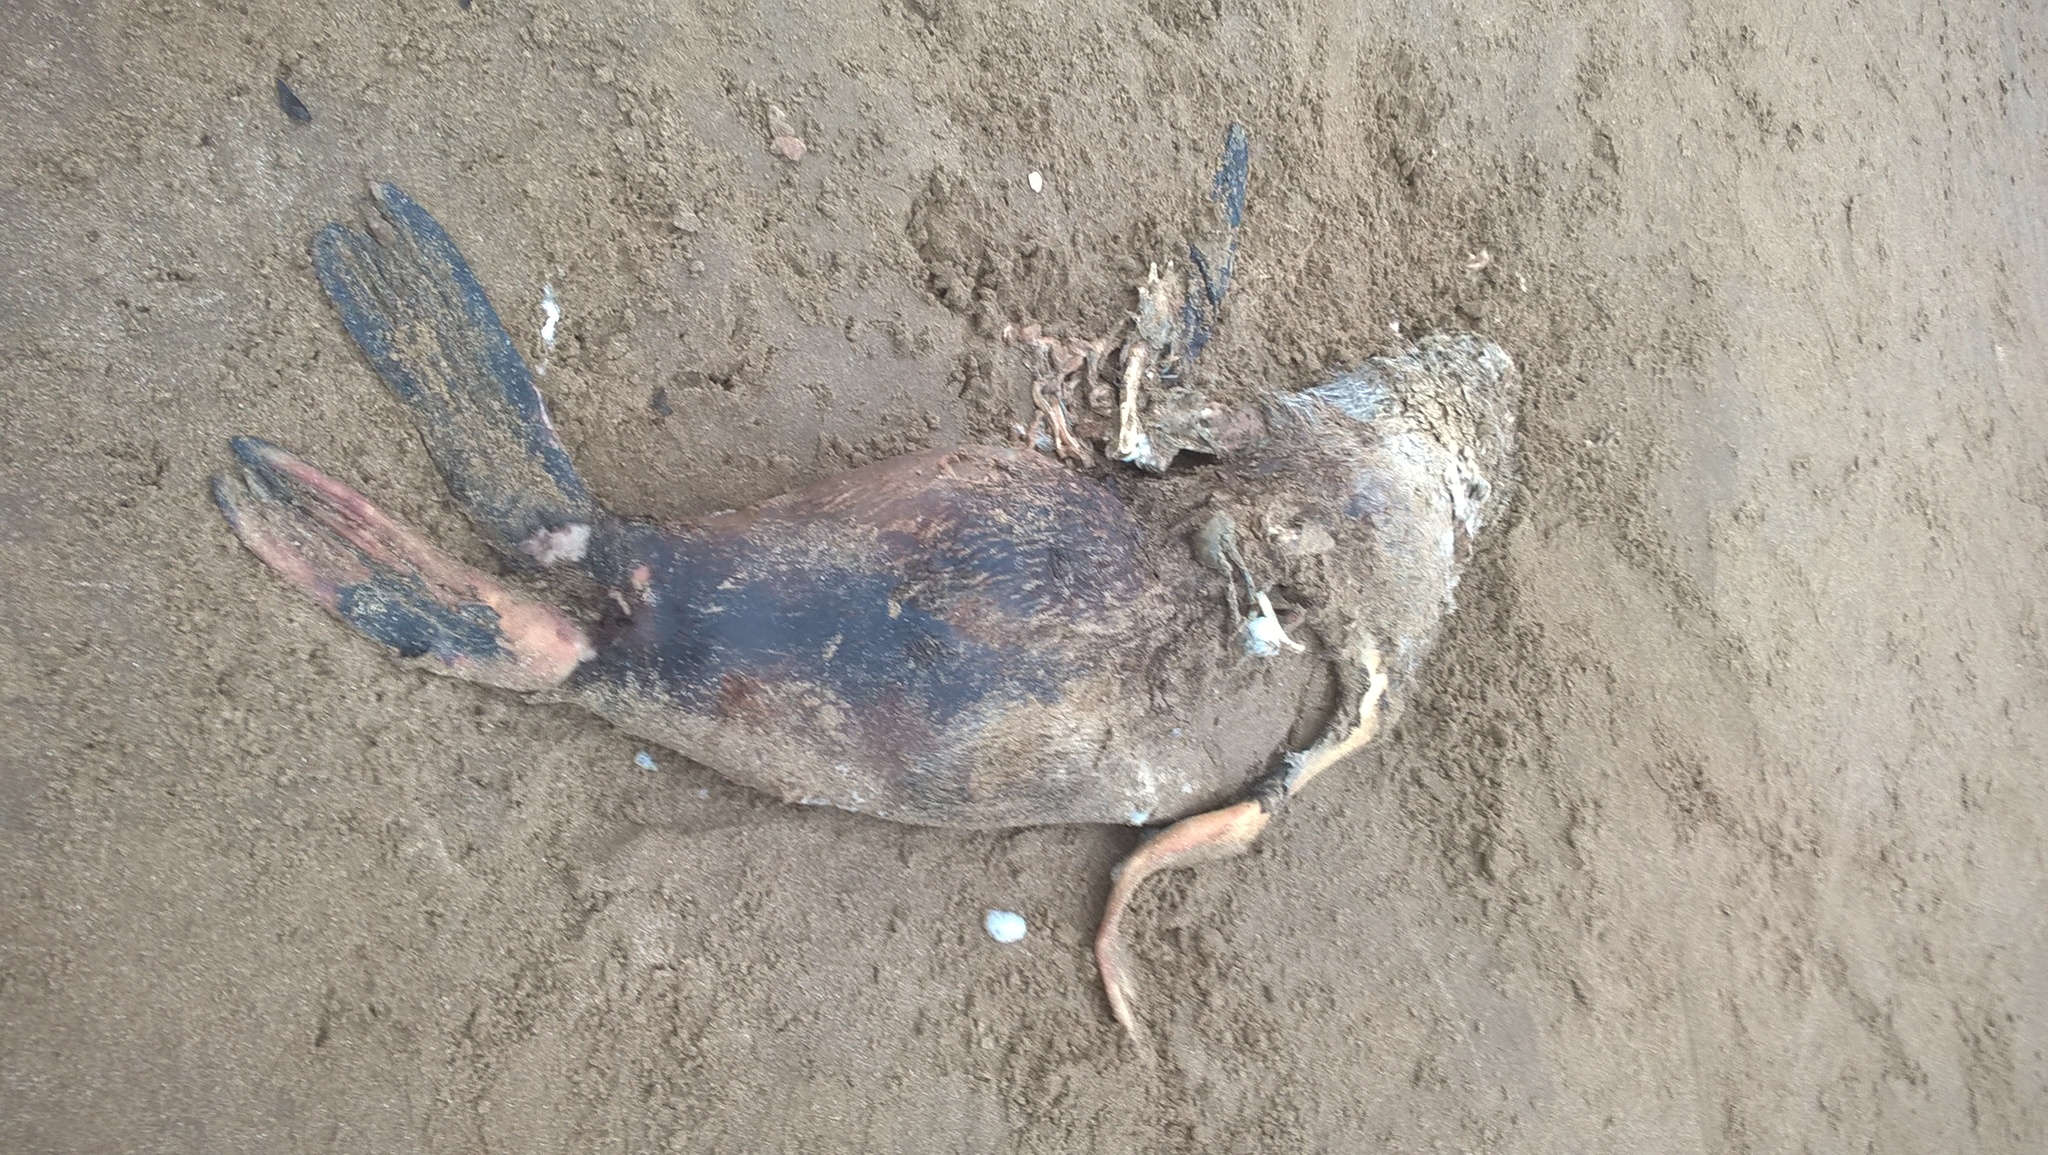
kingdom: Animalia
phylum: Chordata
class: Mammalia
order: Carnivora
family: Otariidae
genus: Arctocephalus
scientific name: Arctocephalus tropicalis
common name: Subantarctic fur seal
